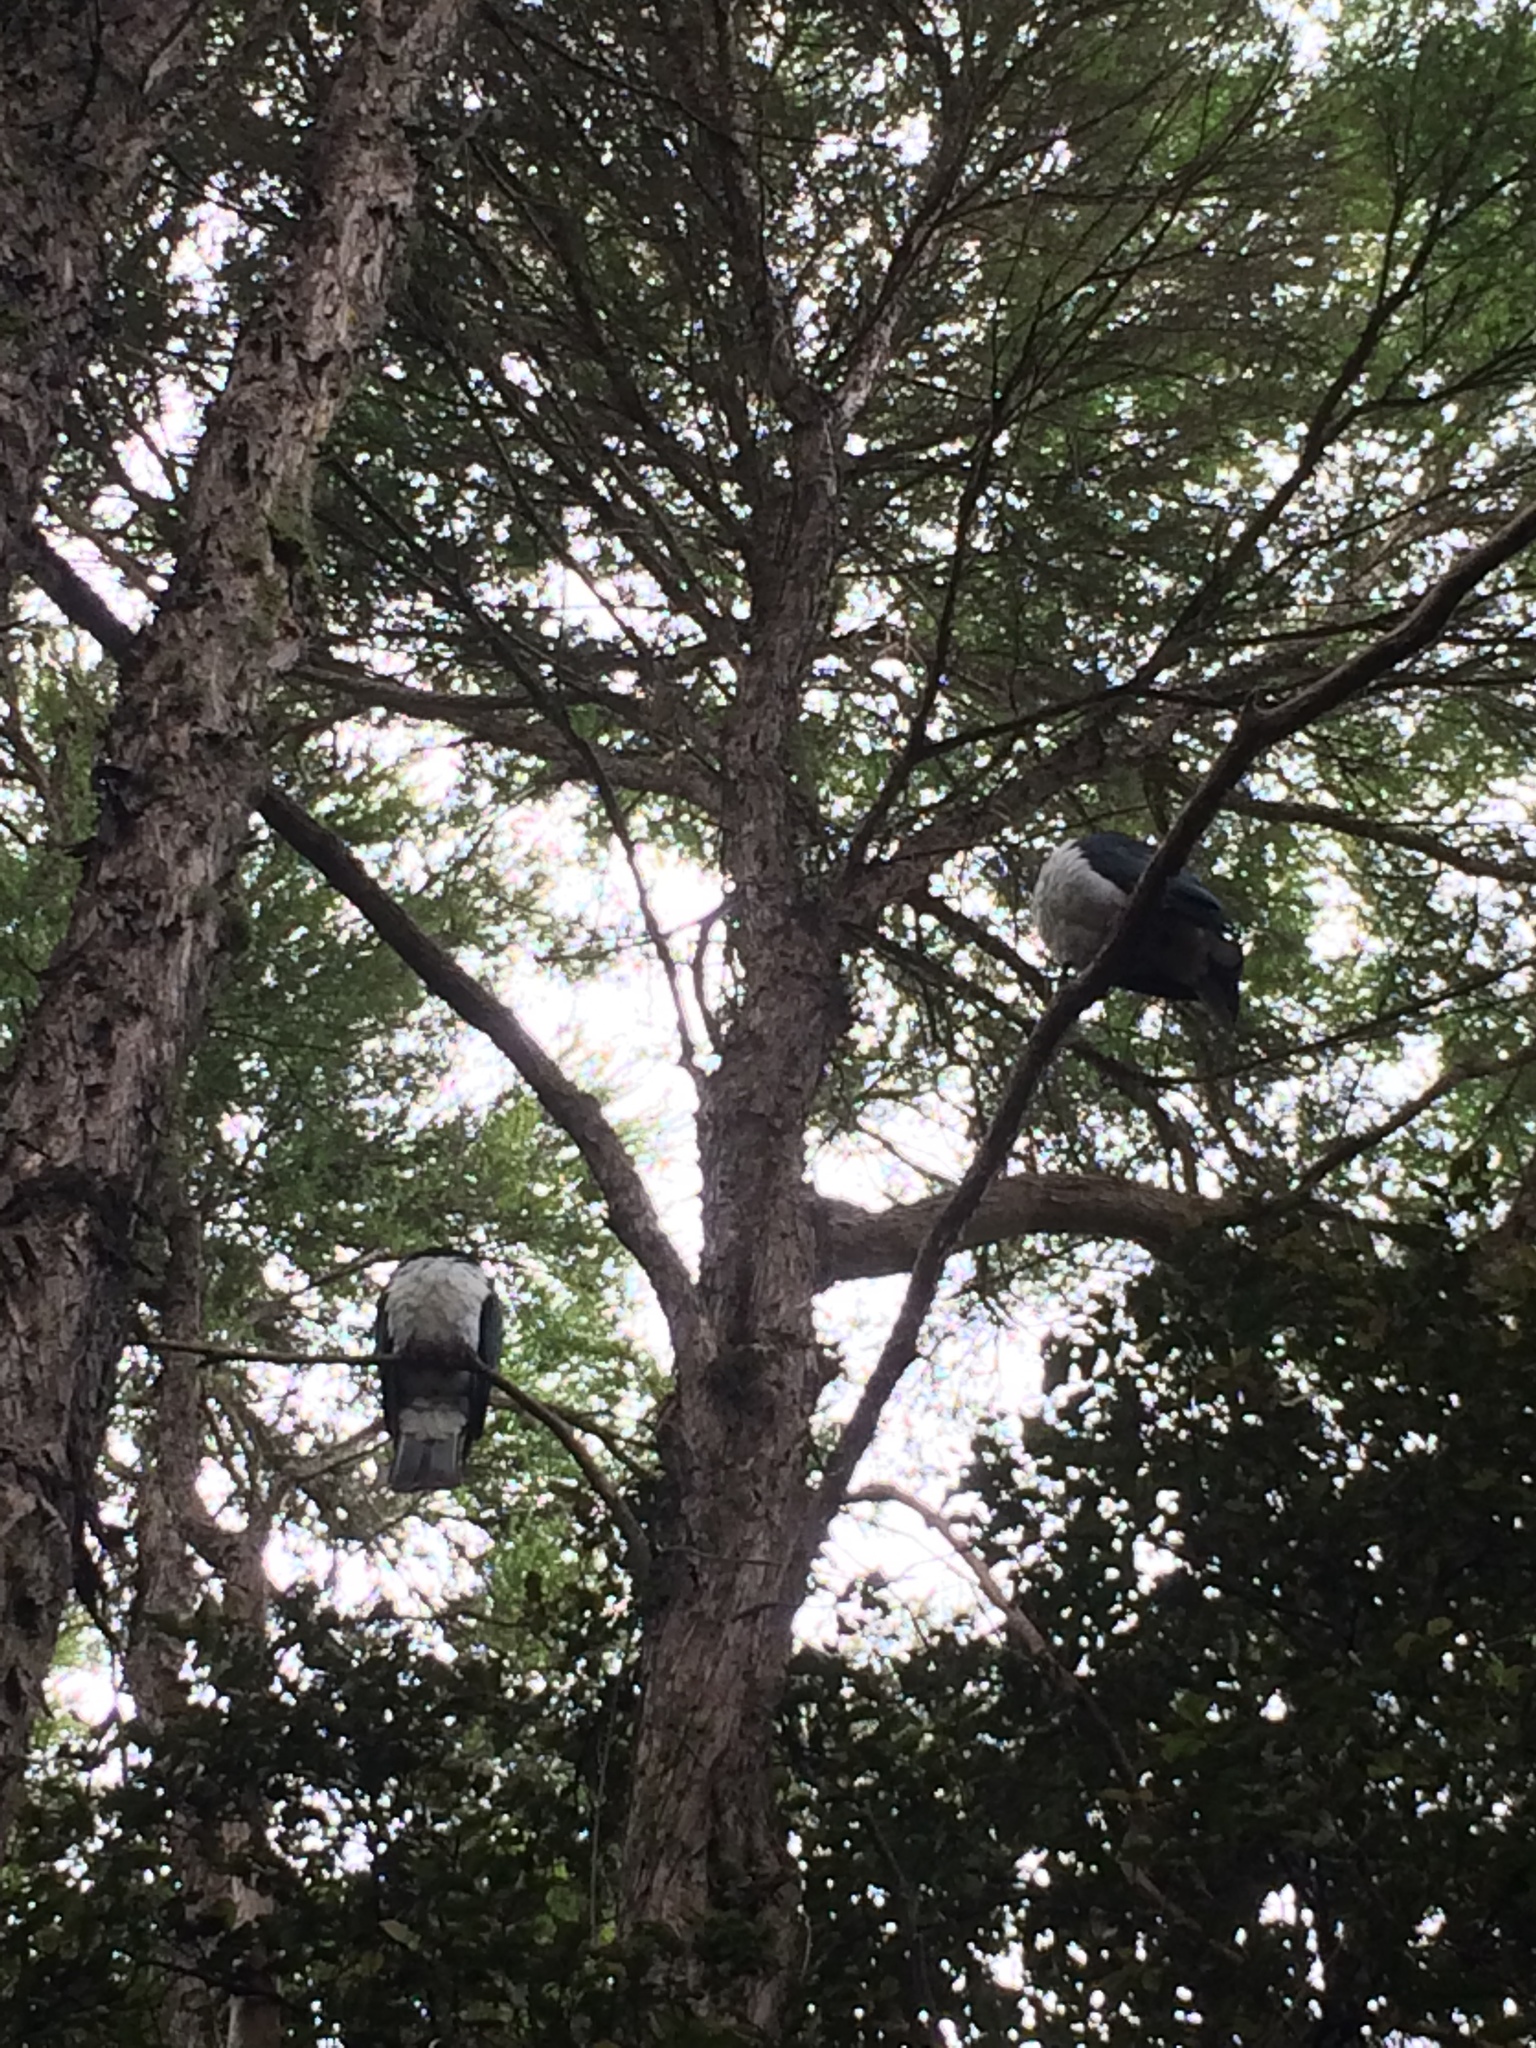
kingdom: Animalia
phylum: Chordata
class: Aves
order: Columbiformes
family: Columbidae
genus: Hemiphaga
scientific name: Hemiphaga novaeseelandiae
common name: New zealand pigeon
